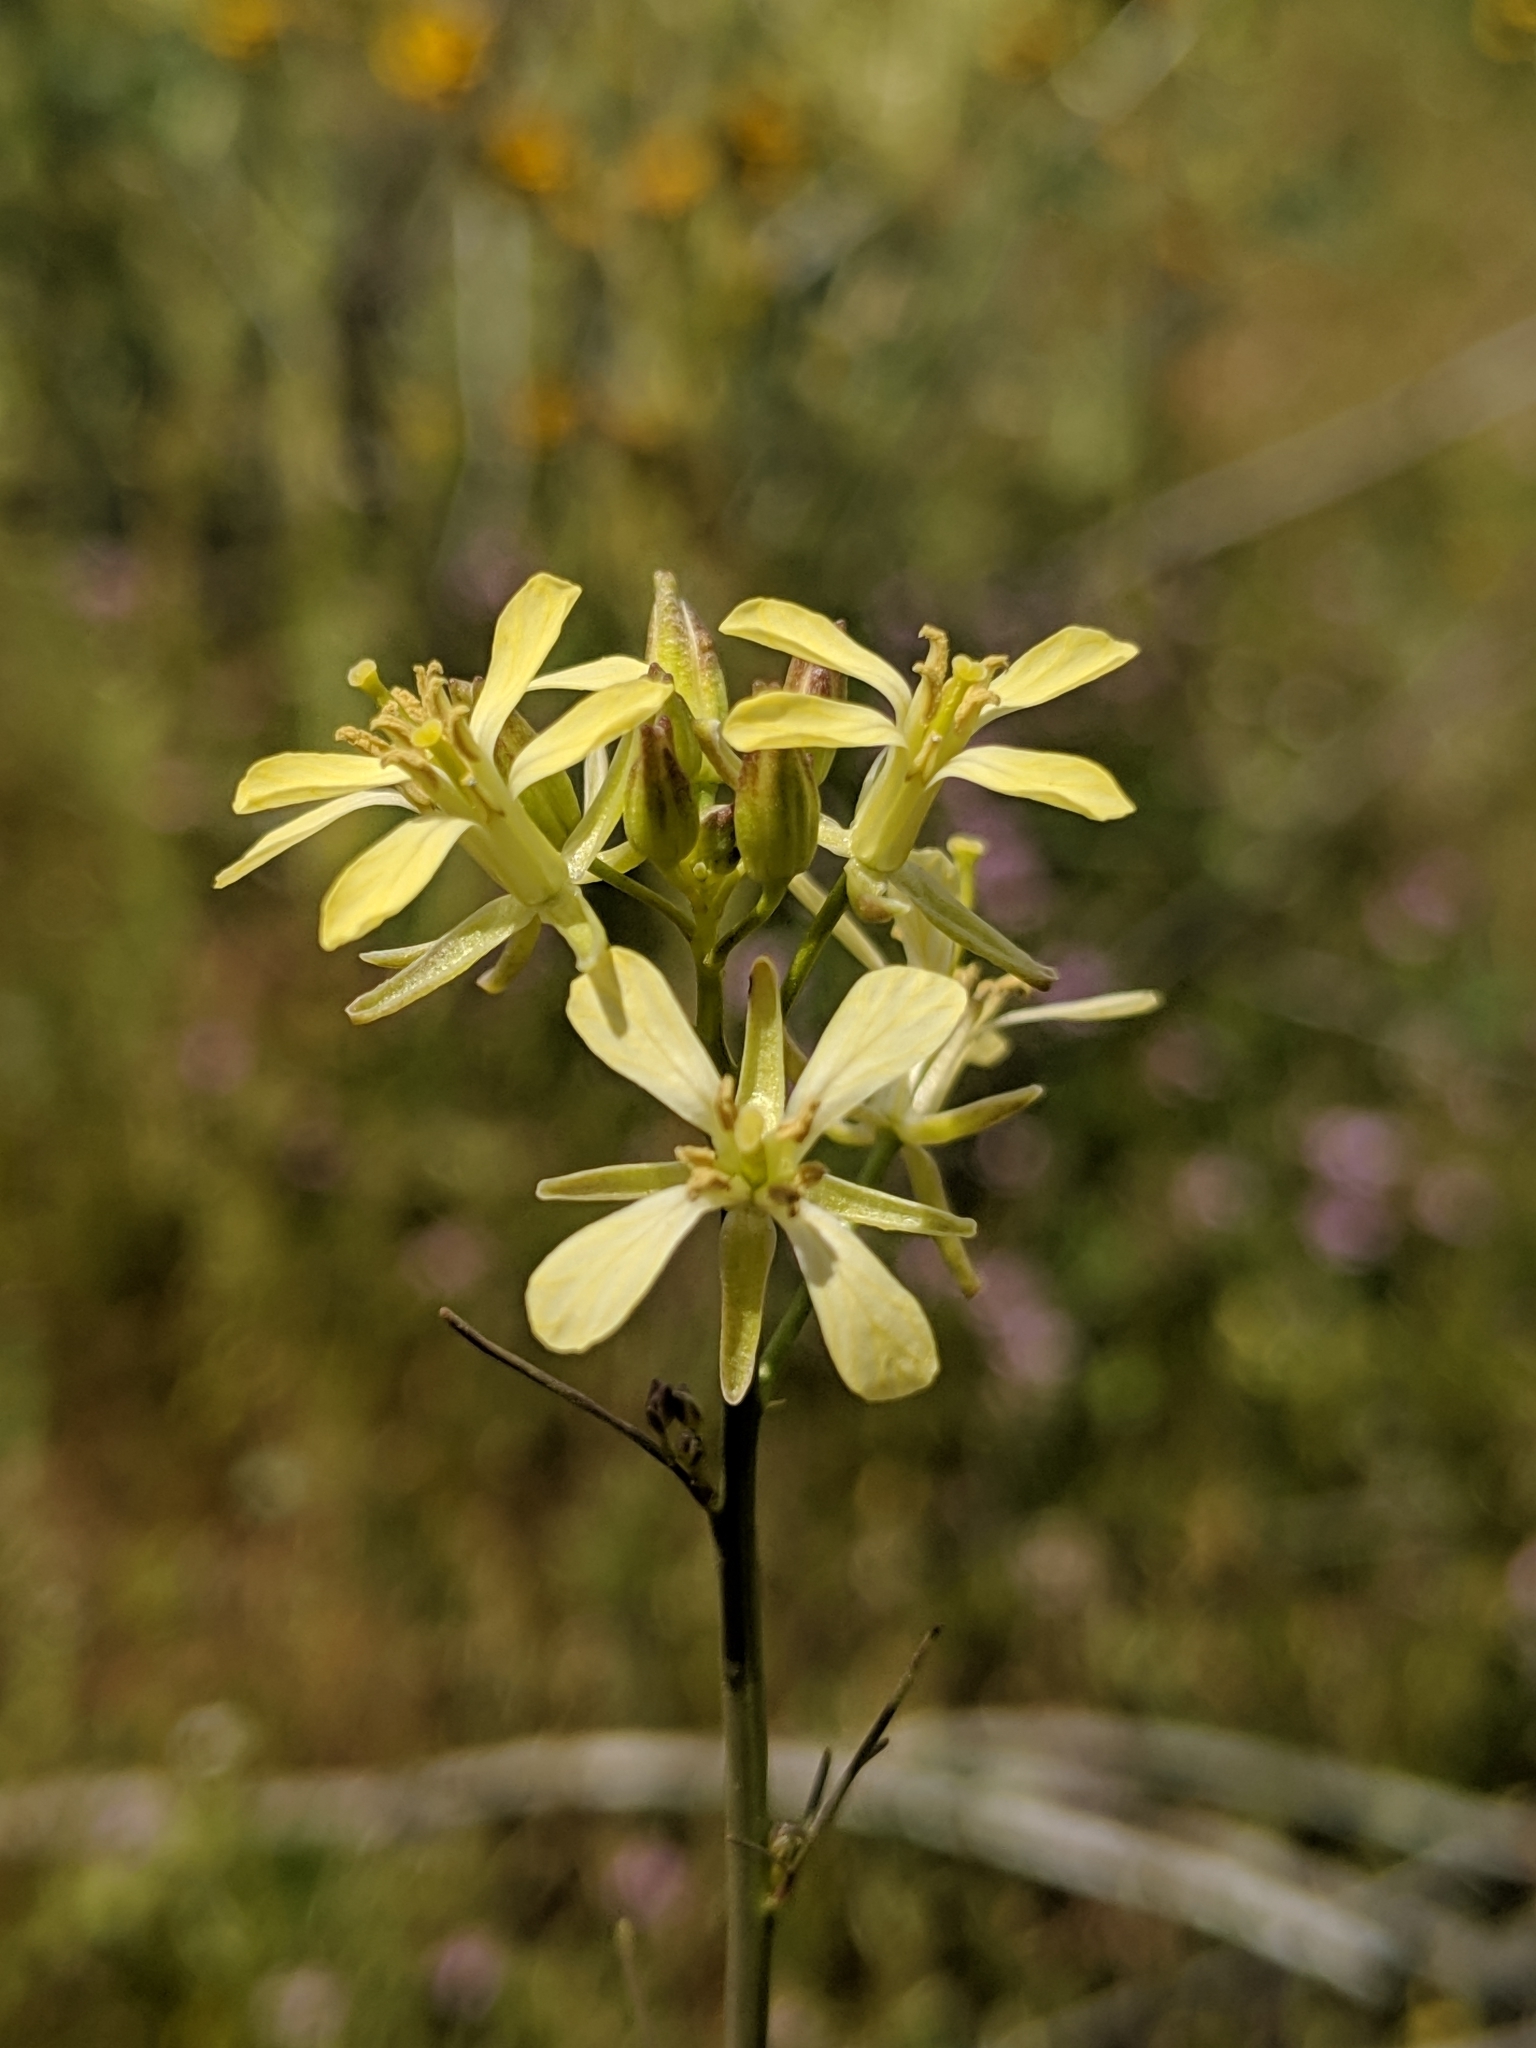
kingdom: Plantae
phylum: Tracheophyta
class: Magnoliopsida
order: Brassicales
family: Brassicaceae
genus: Sisymbrium
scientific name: Sisymbrium altissimum
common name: Tall rocket
